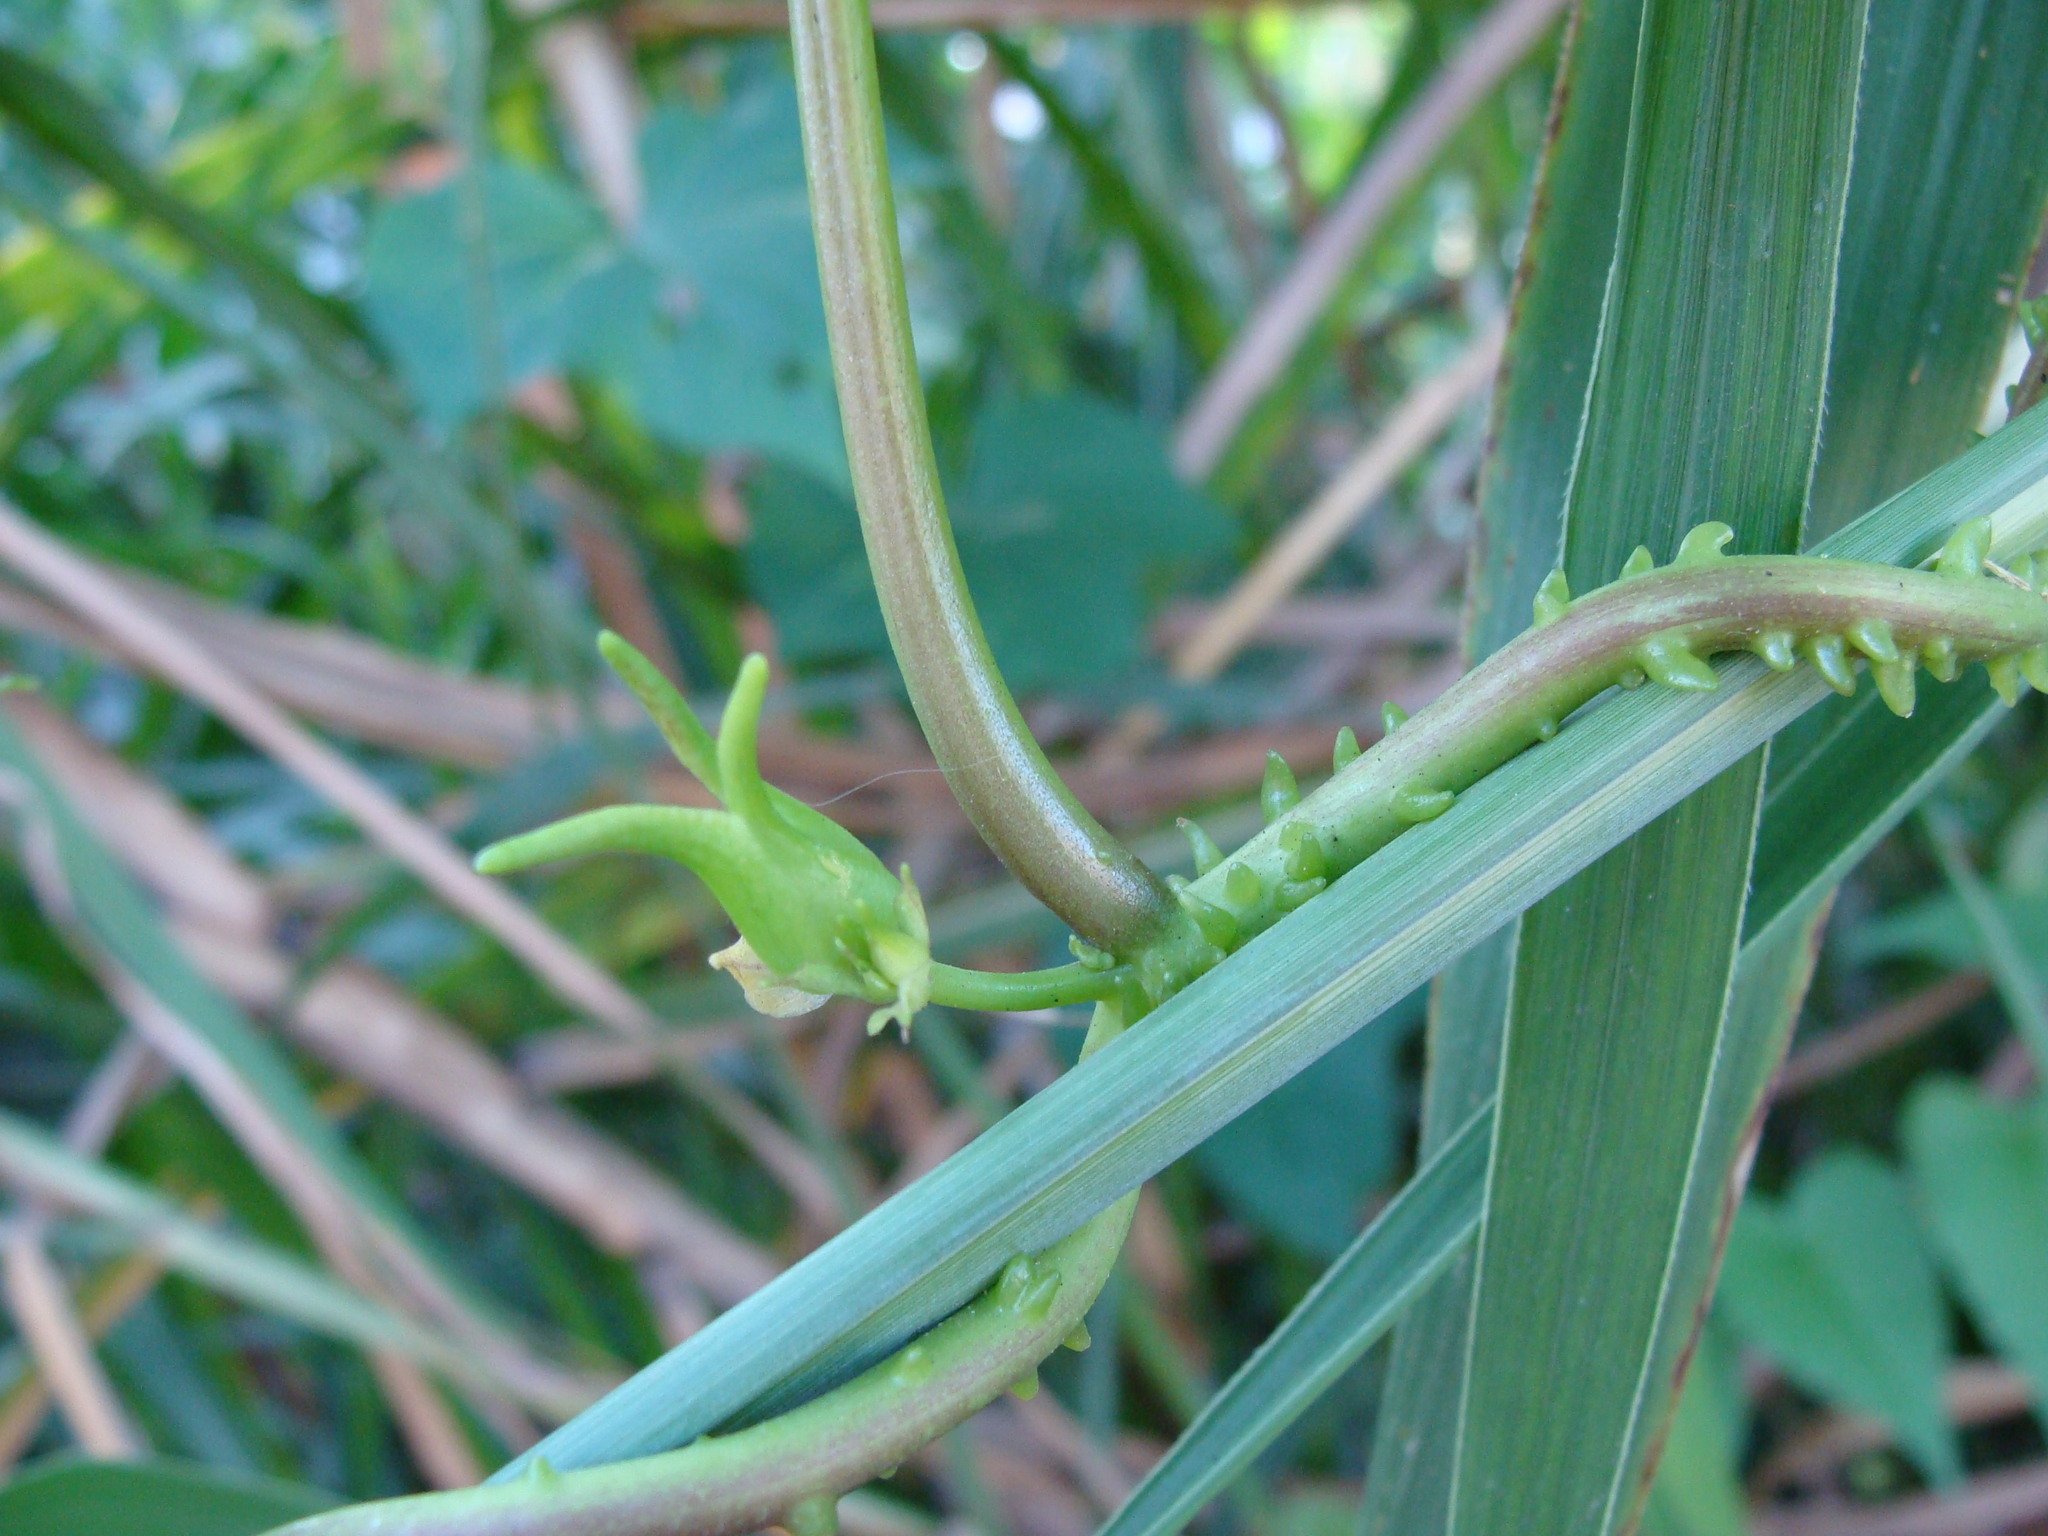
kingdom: Plantae
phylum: Tracheophyta
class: Magnoliopsida
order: Solanales
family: Convolvulaceae
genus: Ipomoea
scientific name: Ipomoea alba
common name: Moonflower
